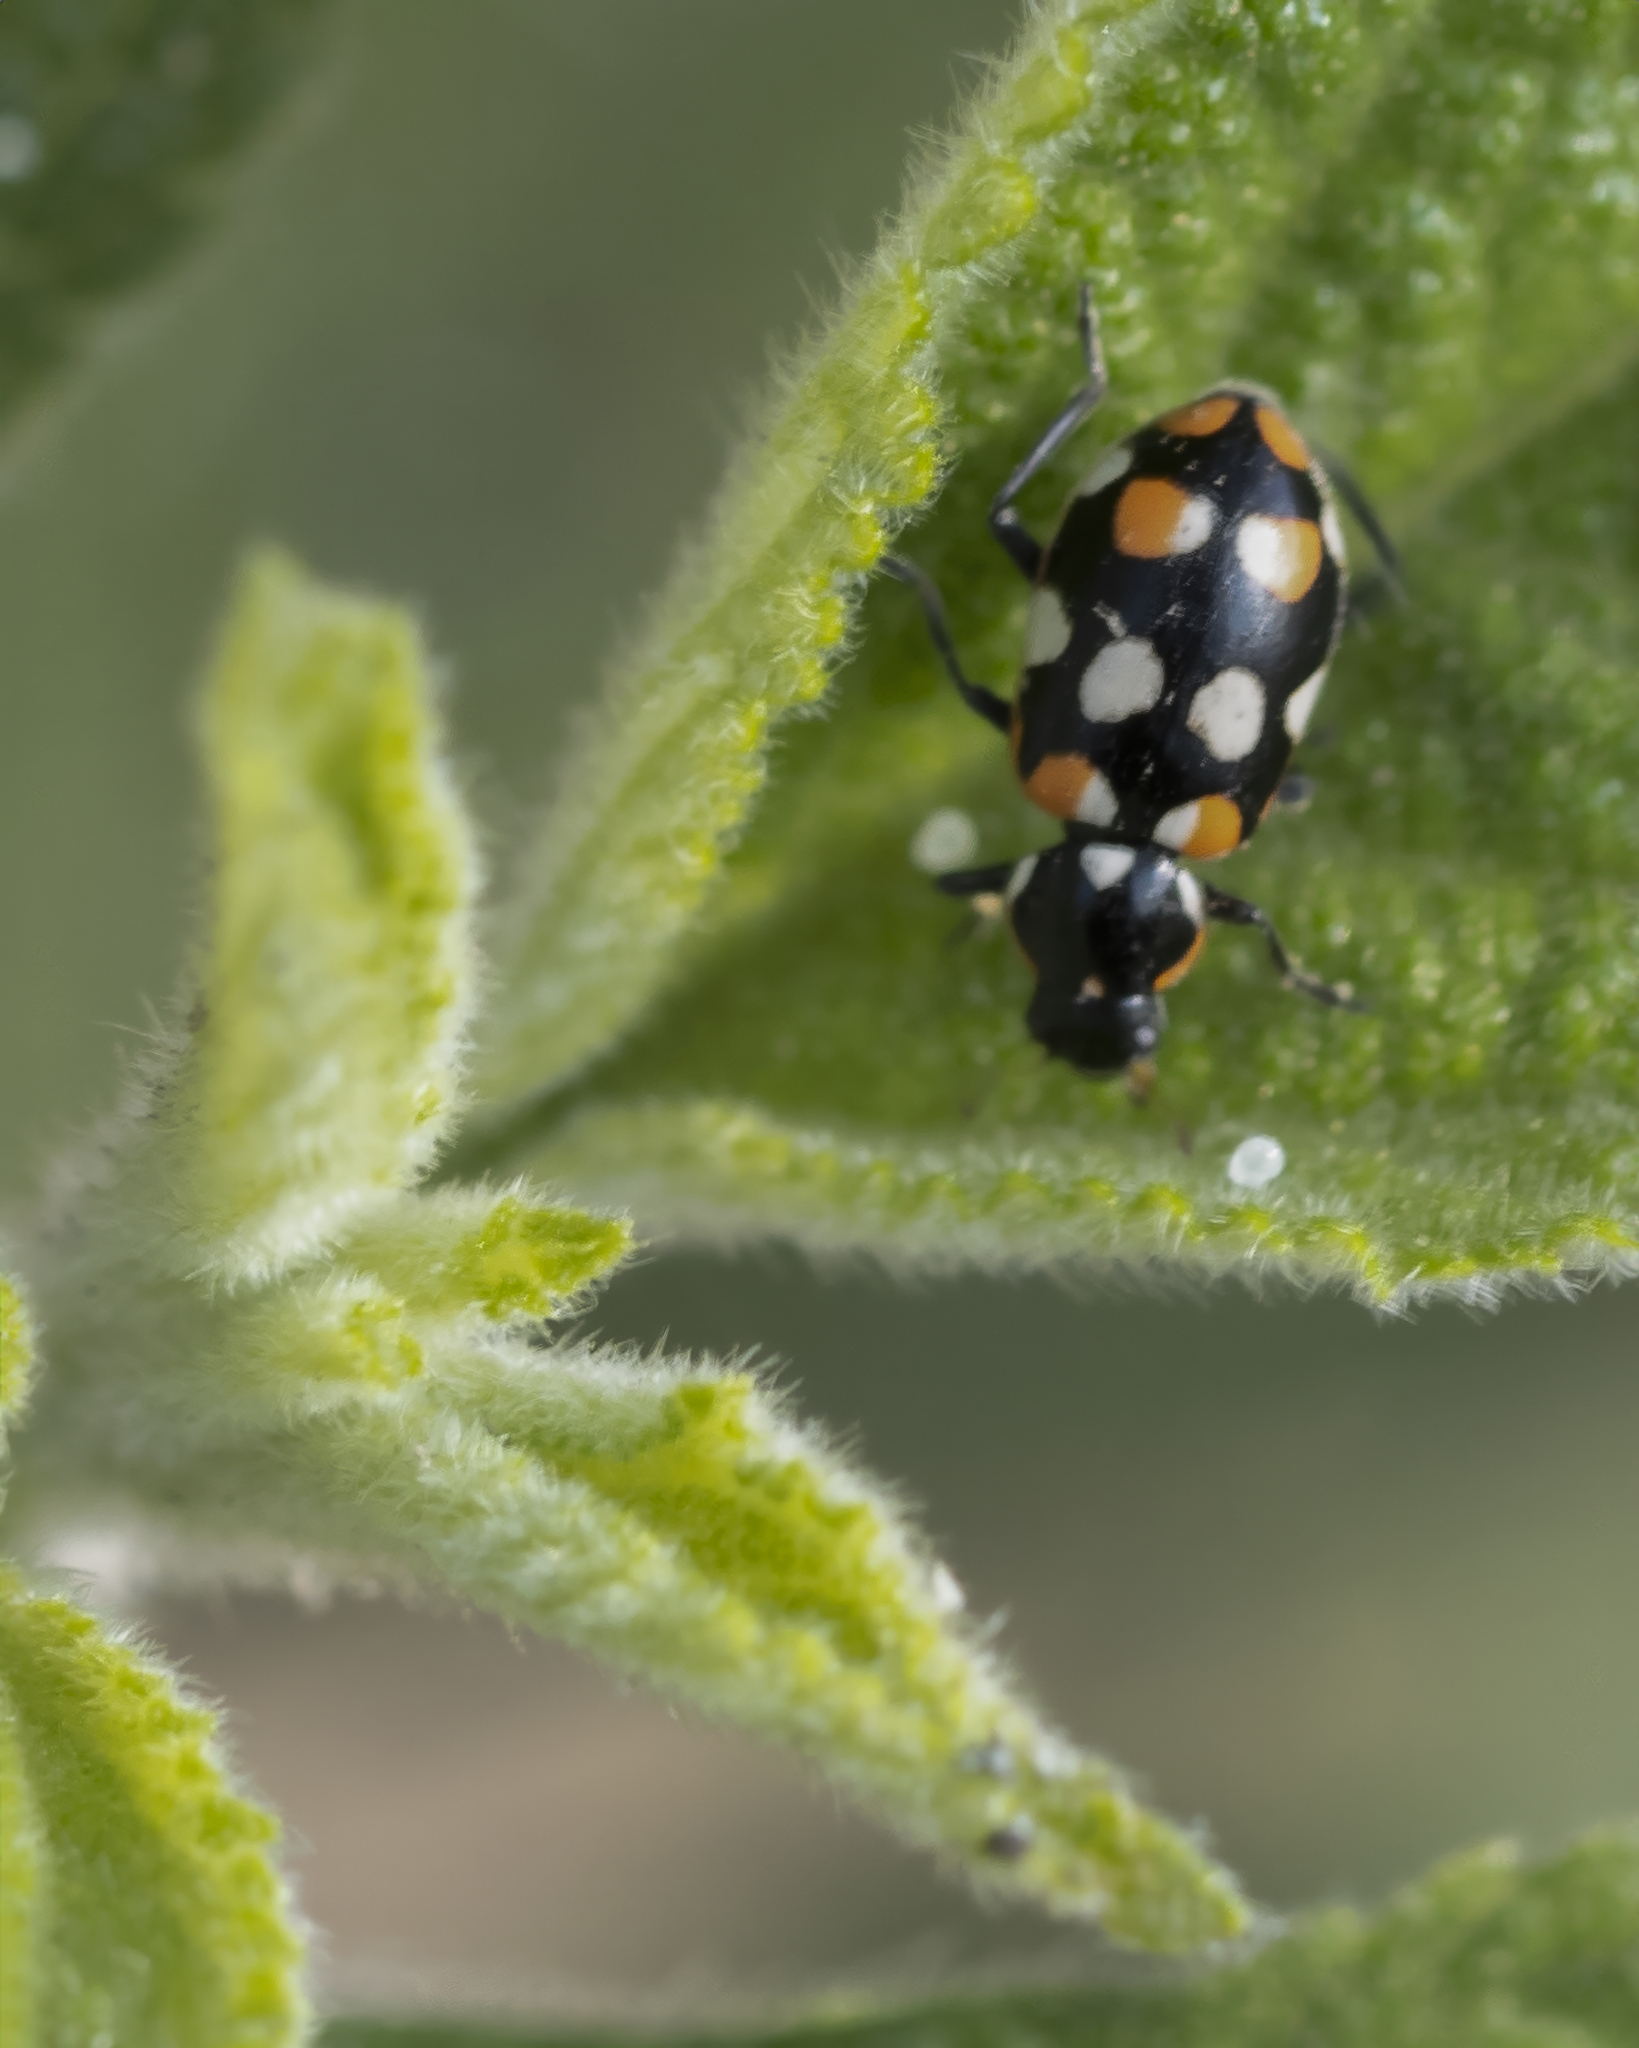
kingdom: Animalia
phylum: Arthropoda
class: Insecta
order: Coleoptera
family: Coccinellidae
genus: Eriopis
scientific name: Eriopis connexa
